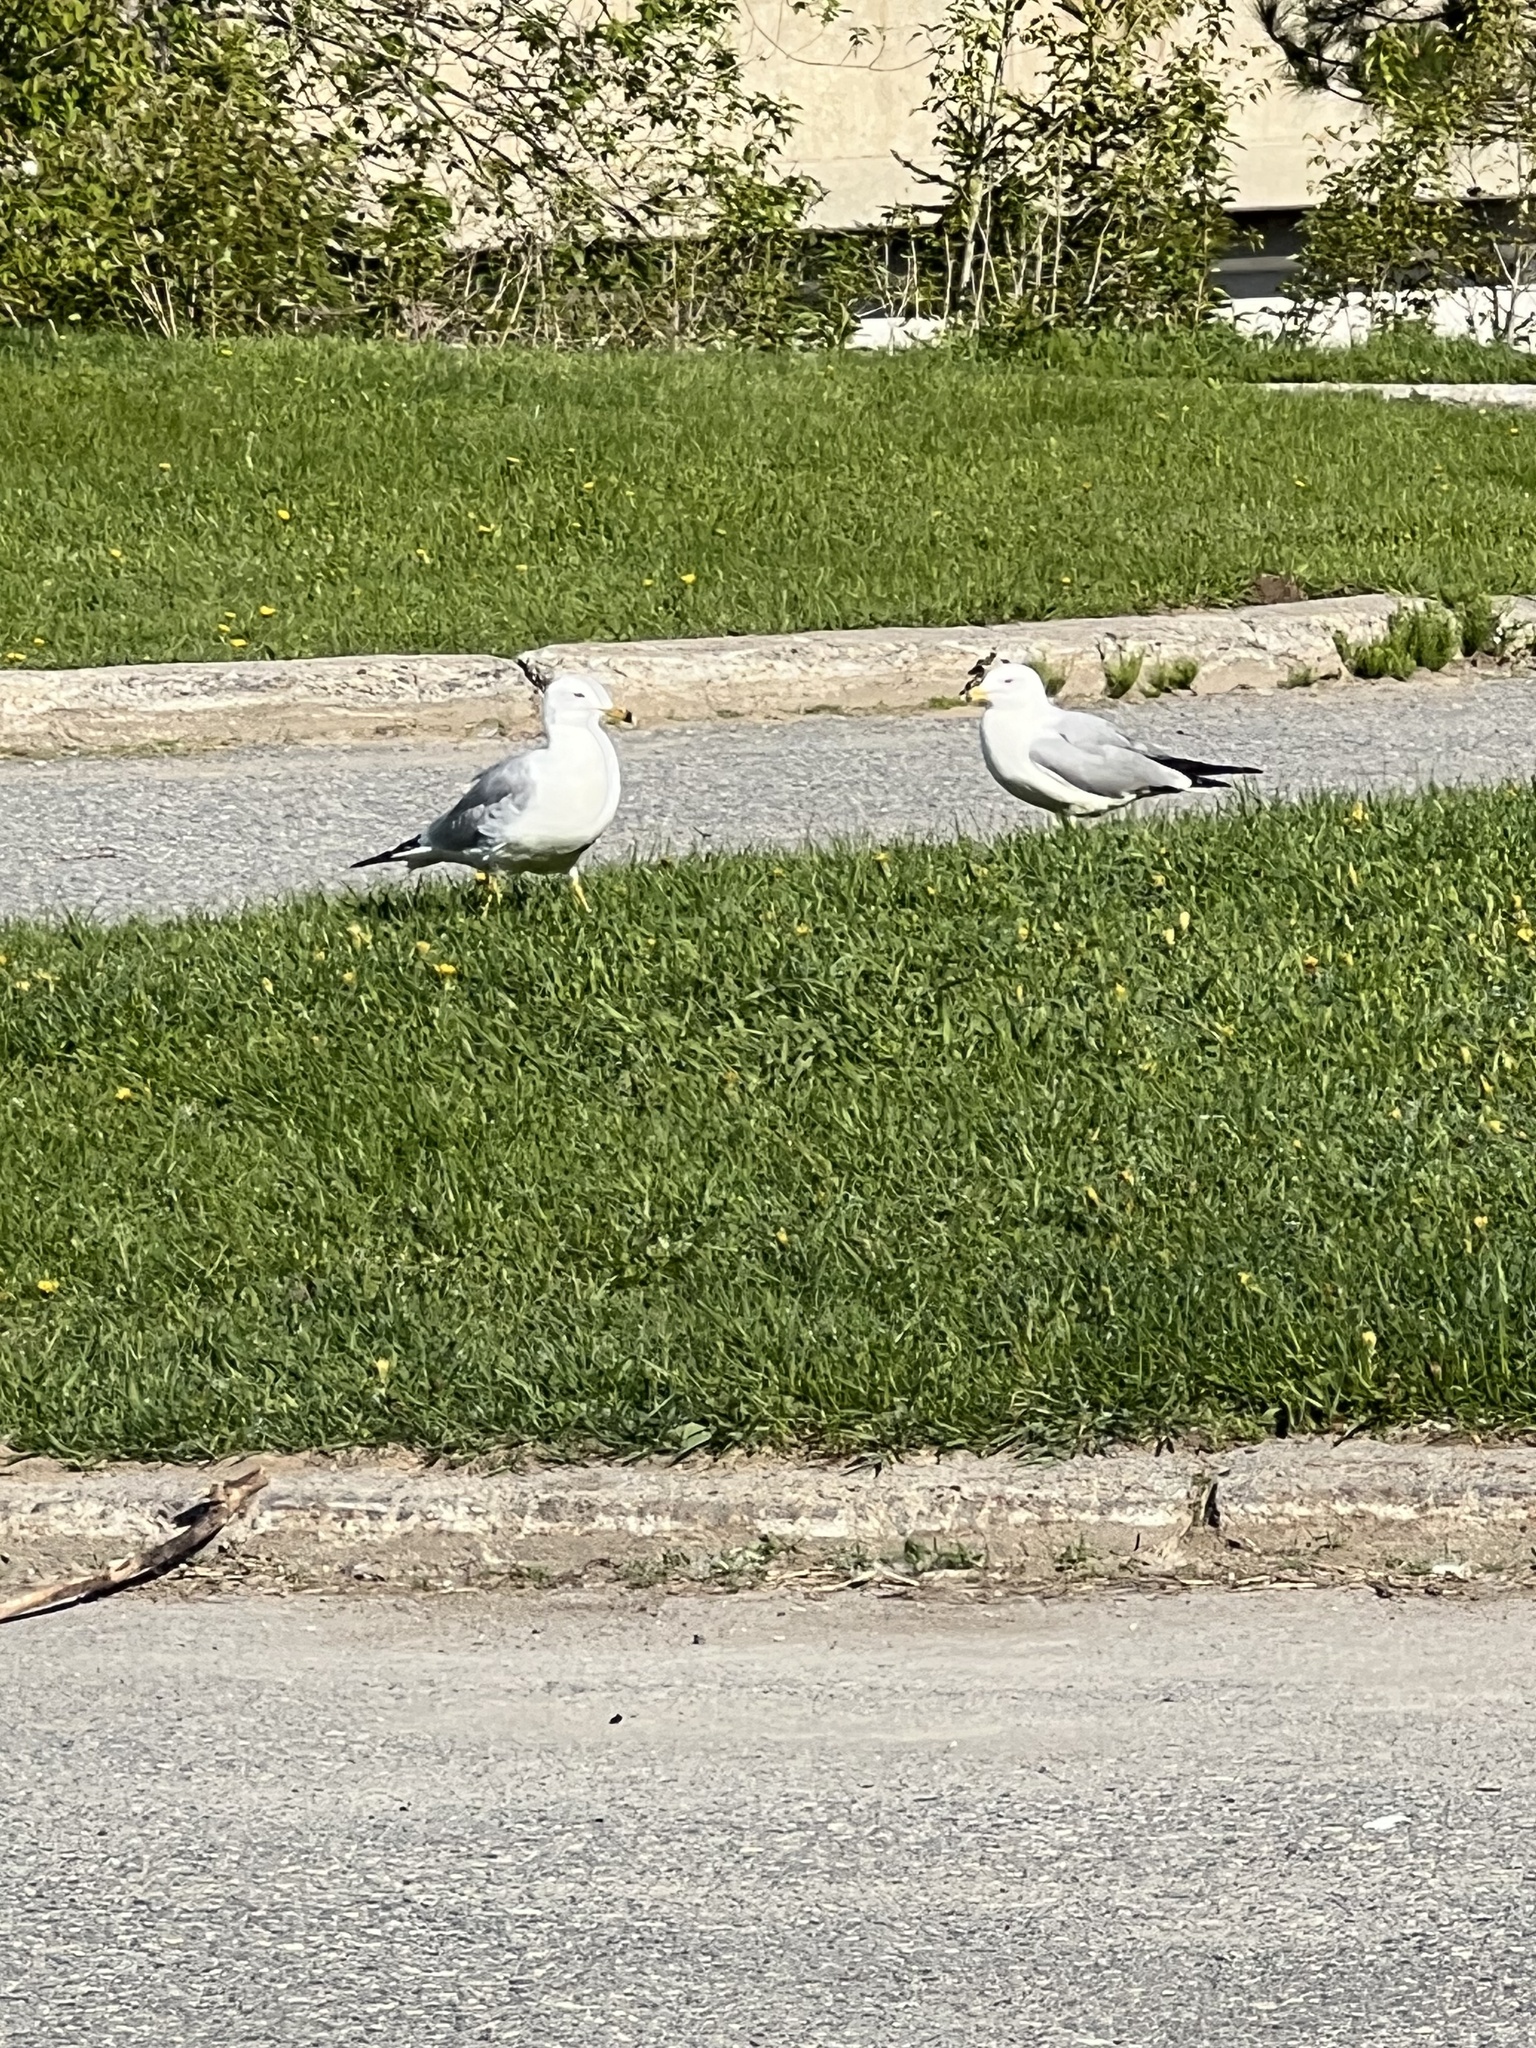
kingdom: Animalia
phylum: Chordata
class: Aves
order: Charadriiformes
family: Laridae
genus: Larus
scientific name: Larus delawarensis
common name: Ring-billed gull
